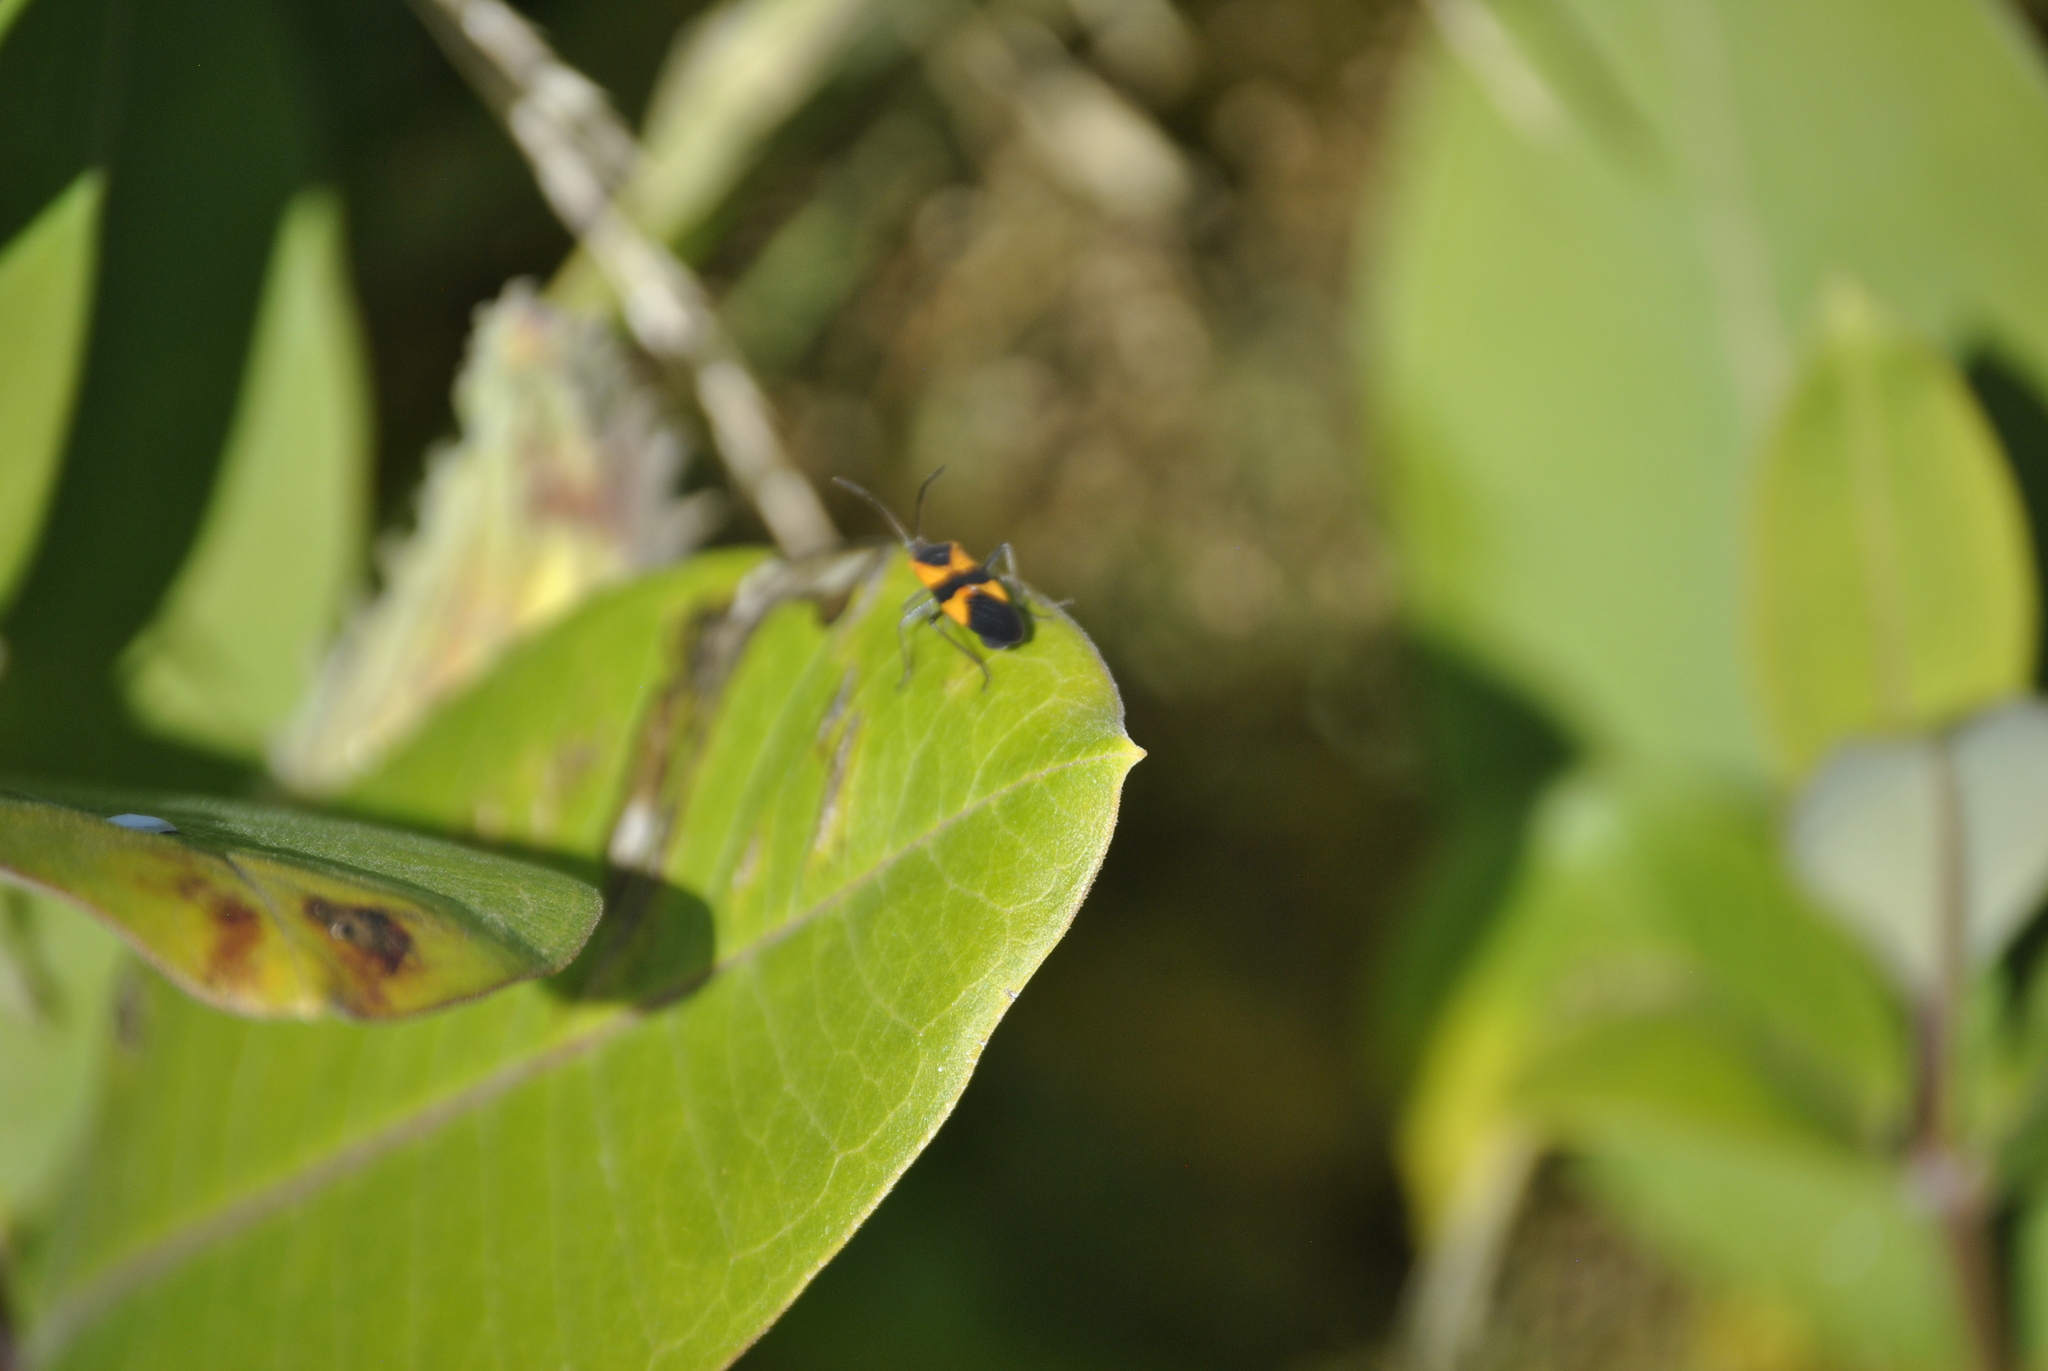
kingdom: Animalia
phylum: Arthropoda
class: Insecta
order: Hemiptera
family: Lygaeidae
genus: Oncopeltus
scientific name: Oncopeltus fasciatus
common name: Large milkweed bug
